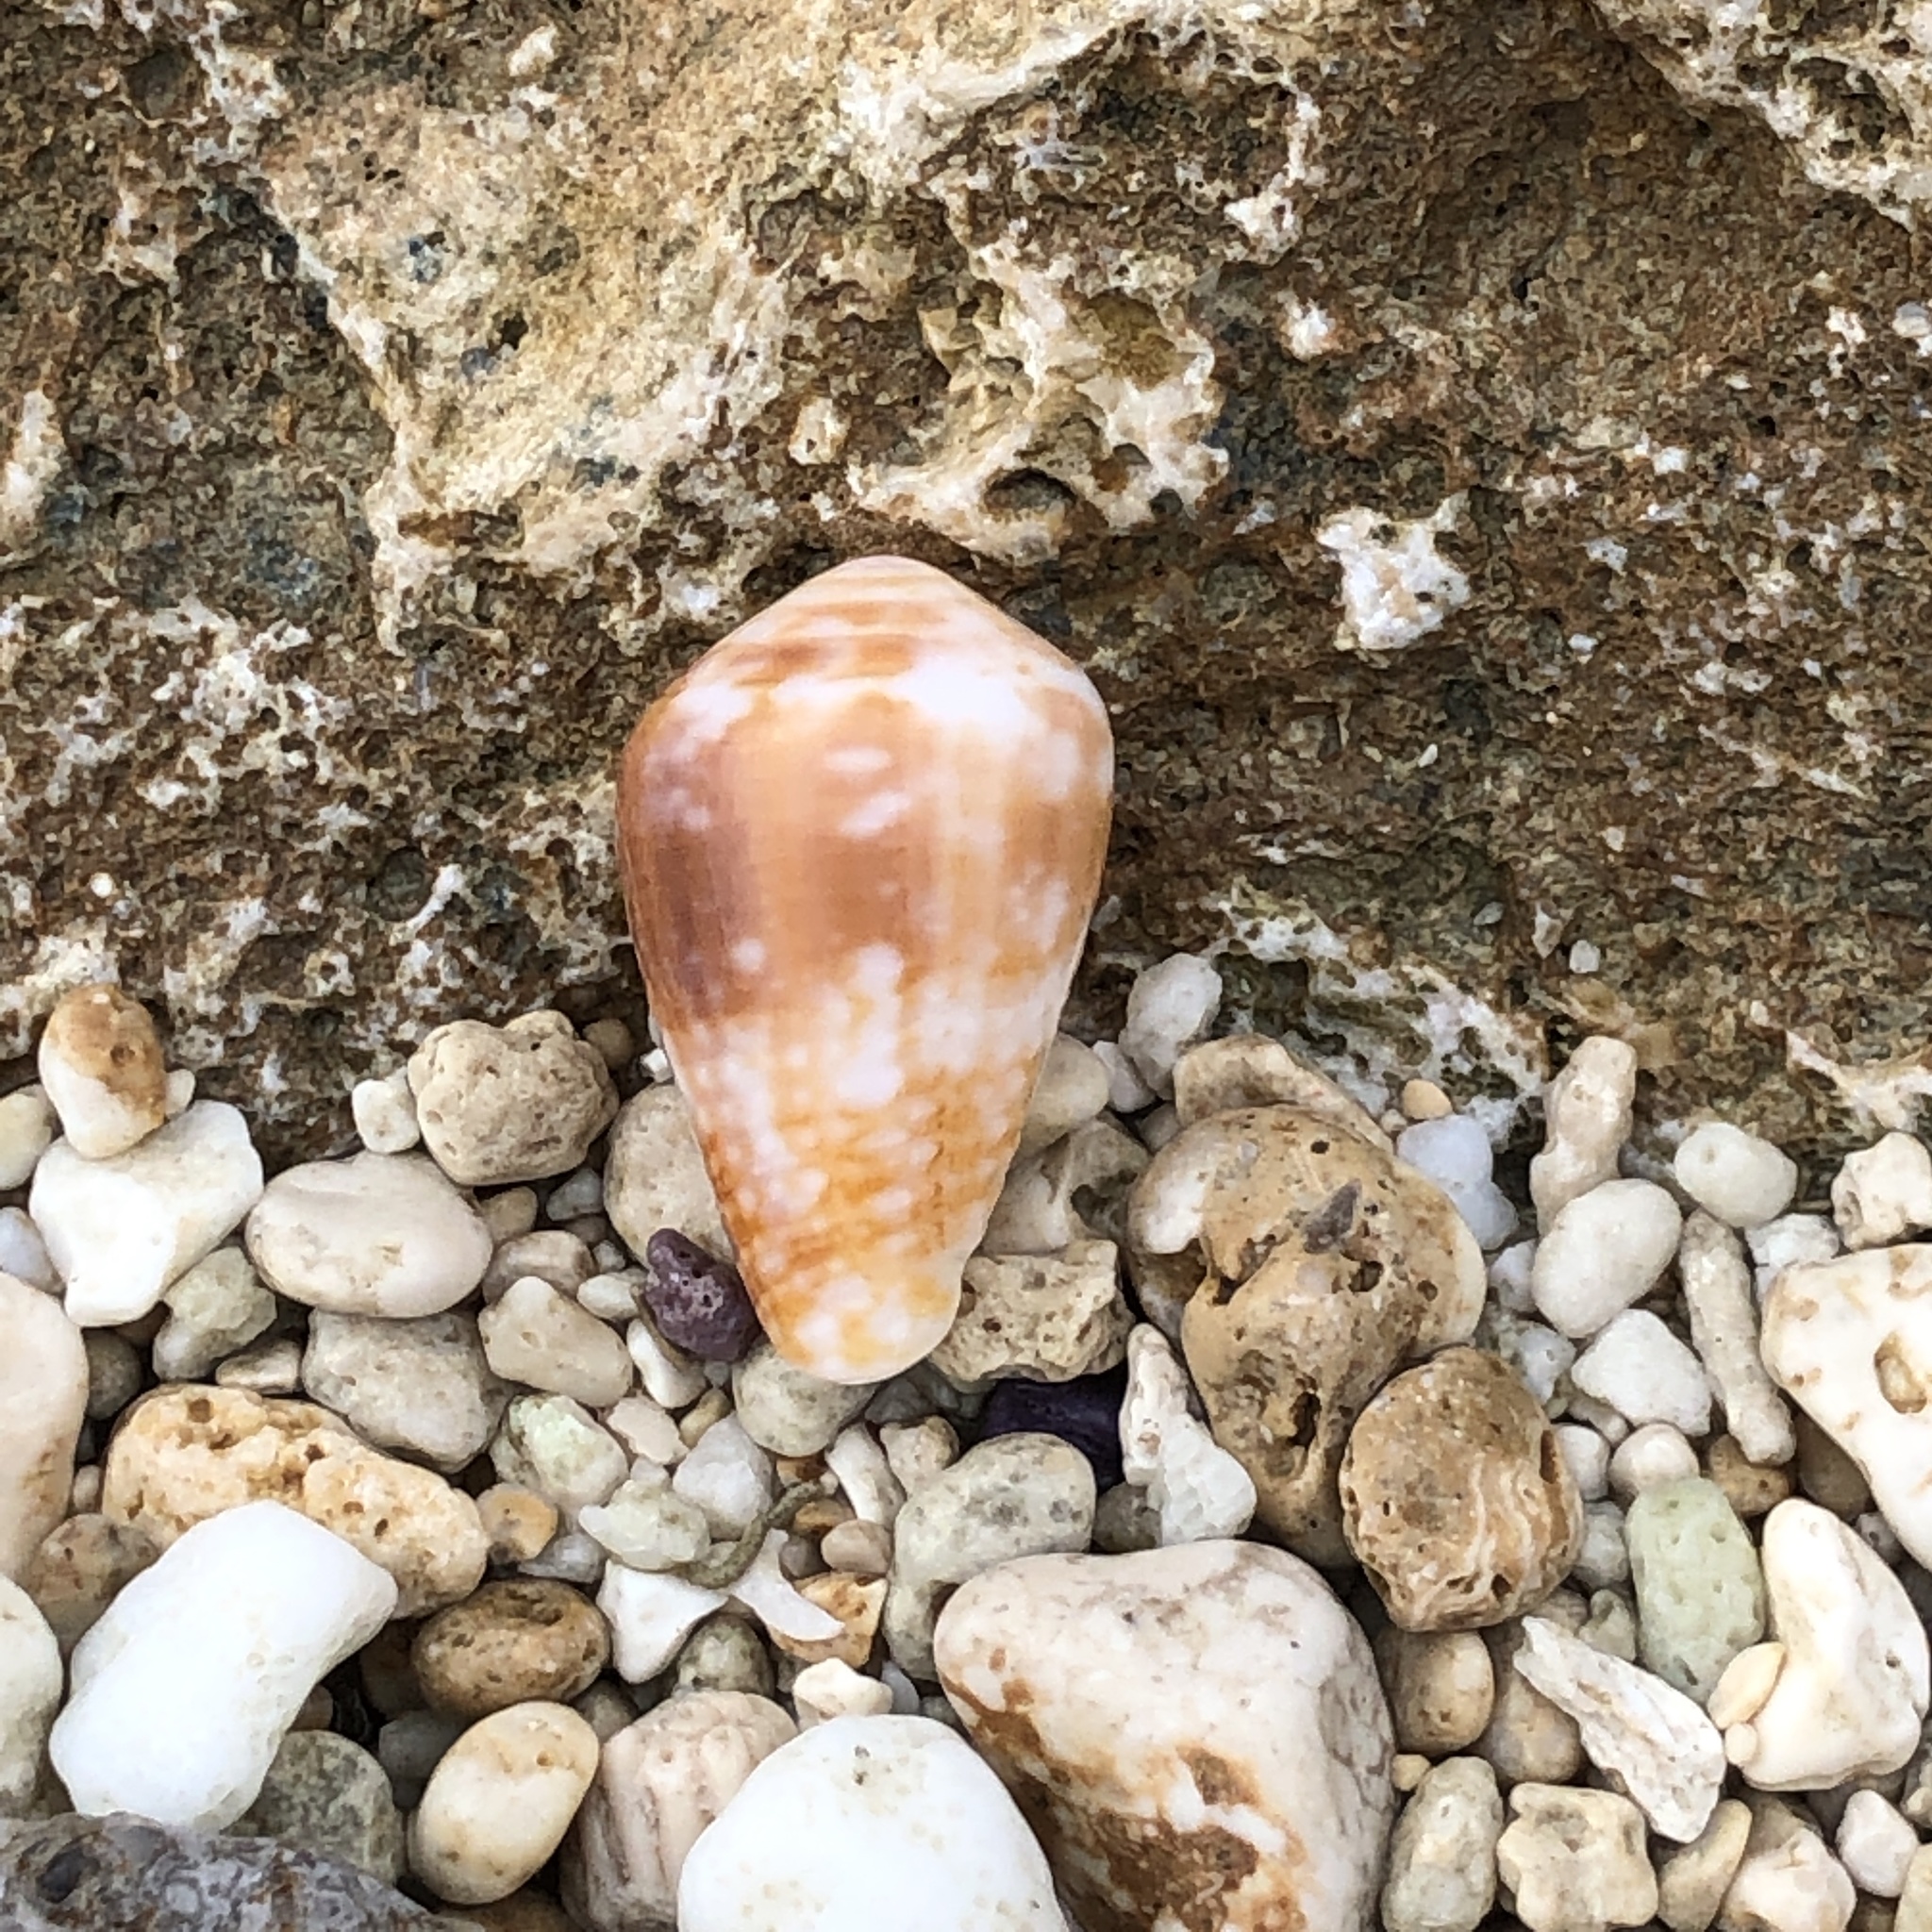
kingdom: Animalia
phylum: Mollusca
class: Gastropoda
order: Neogastropoda
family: Conidae
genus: Conus
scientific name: Conus catus
